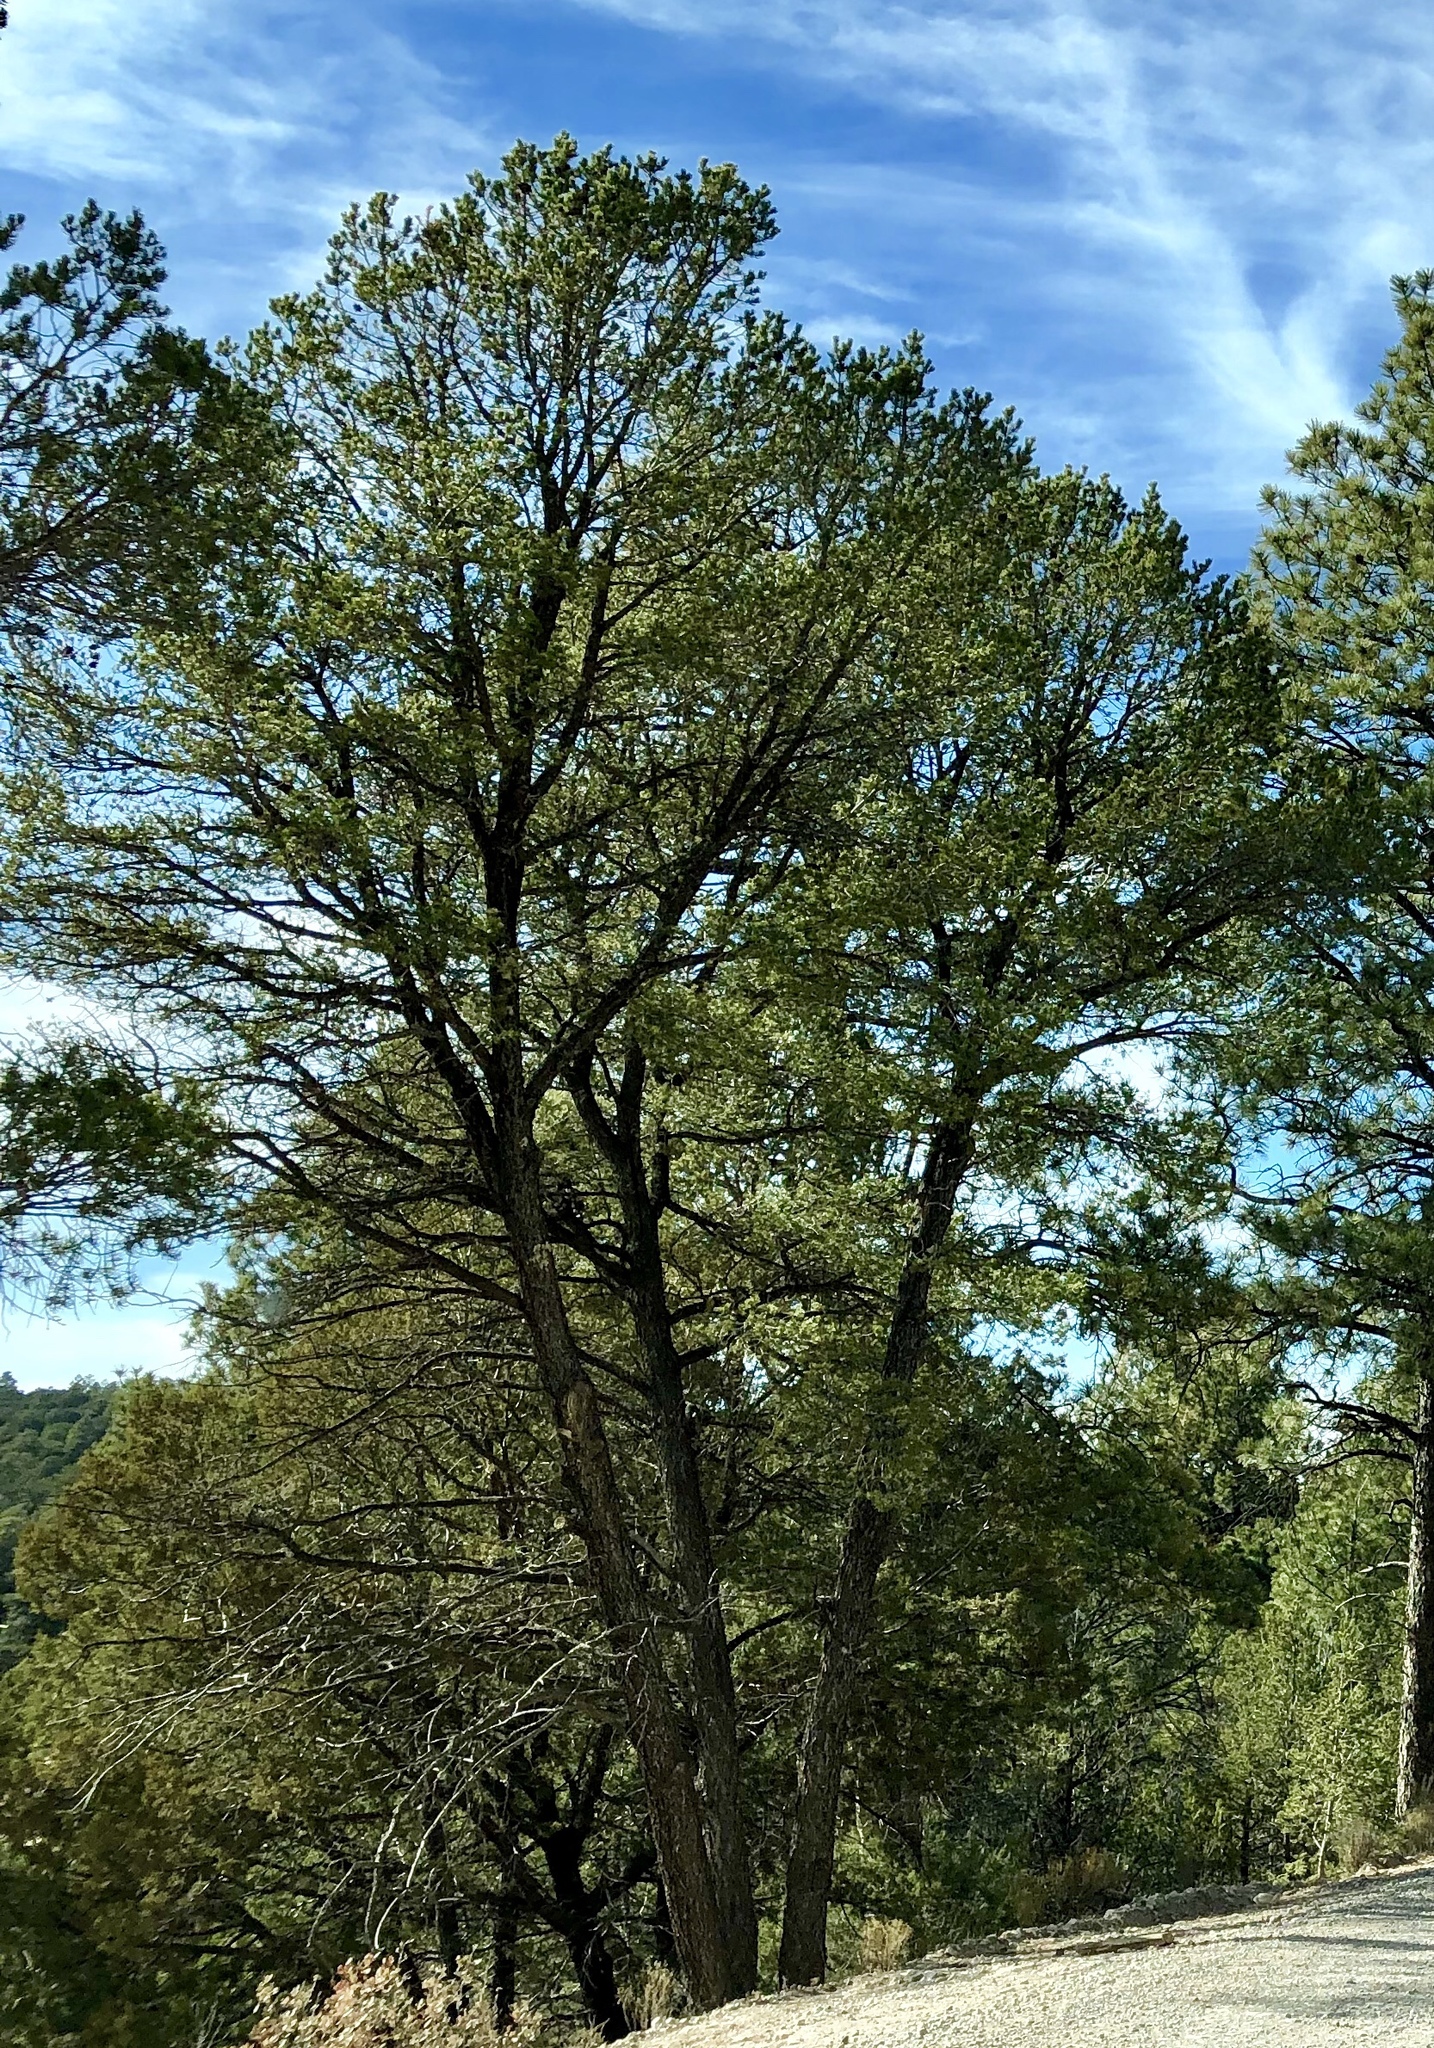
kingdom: Plantae
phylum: Tracheophyta
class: Pinopsida
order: Pinales
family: Pinaceae
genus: Pinus
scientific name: Pinus edulis
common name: Colorado pinyon
